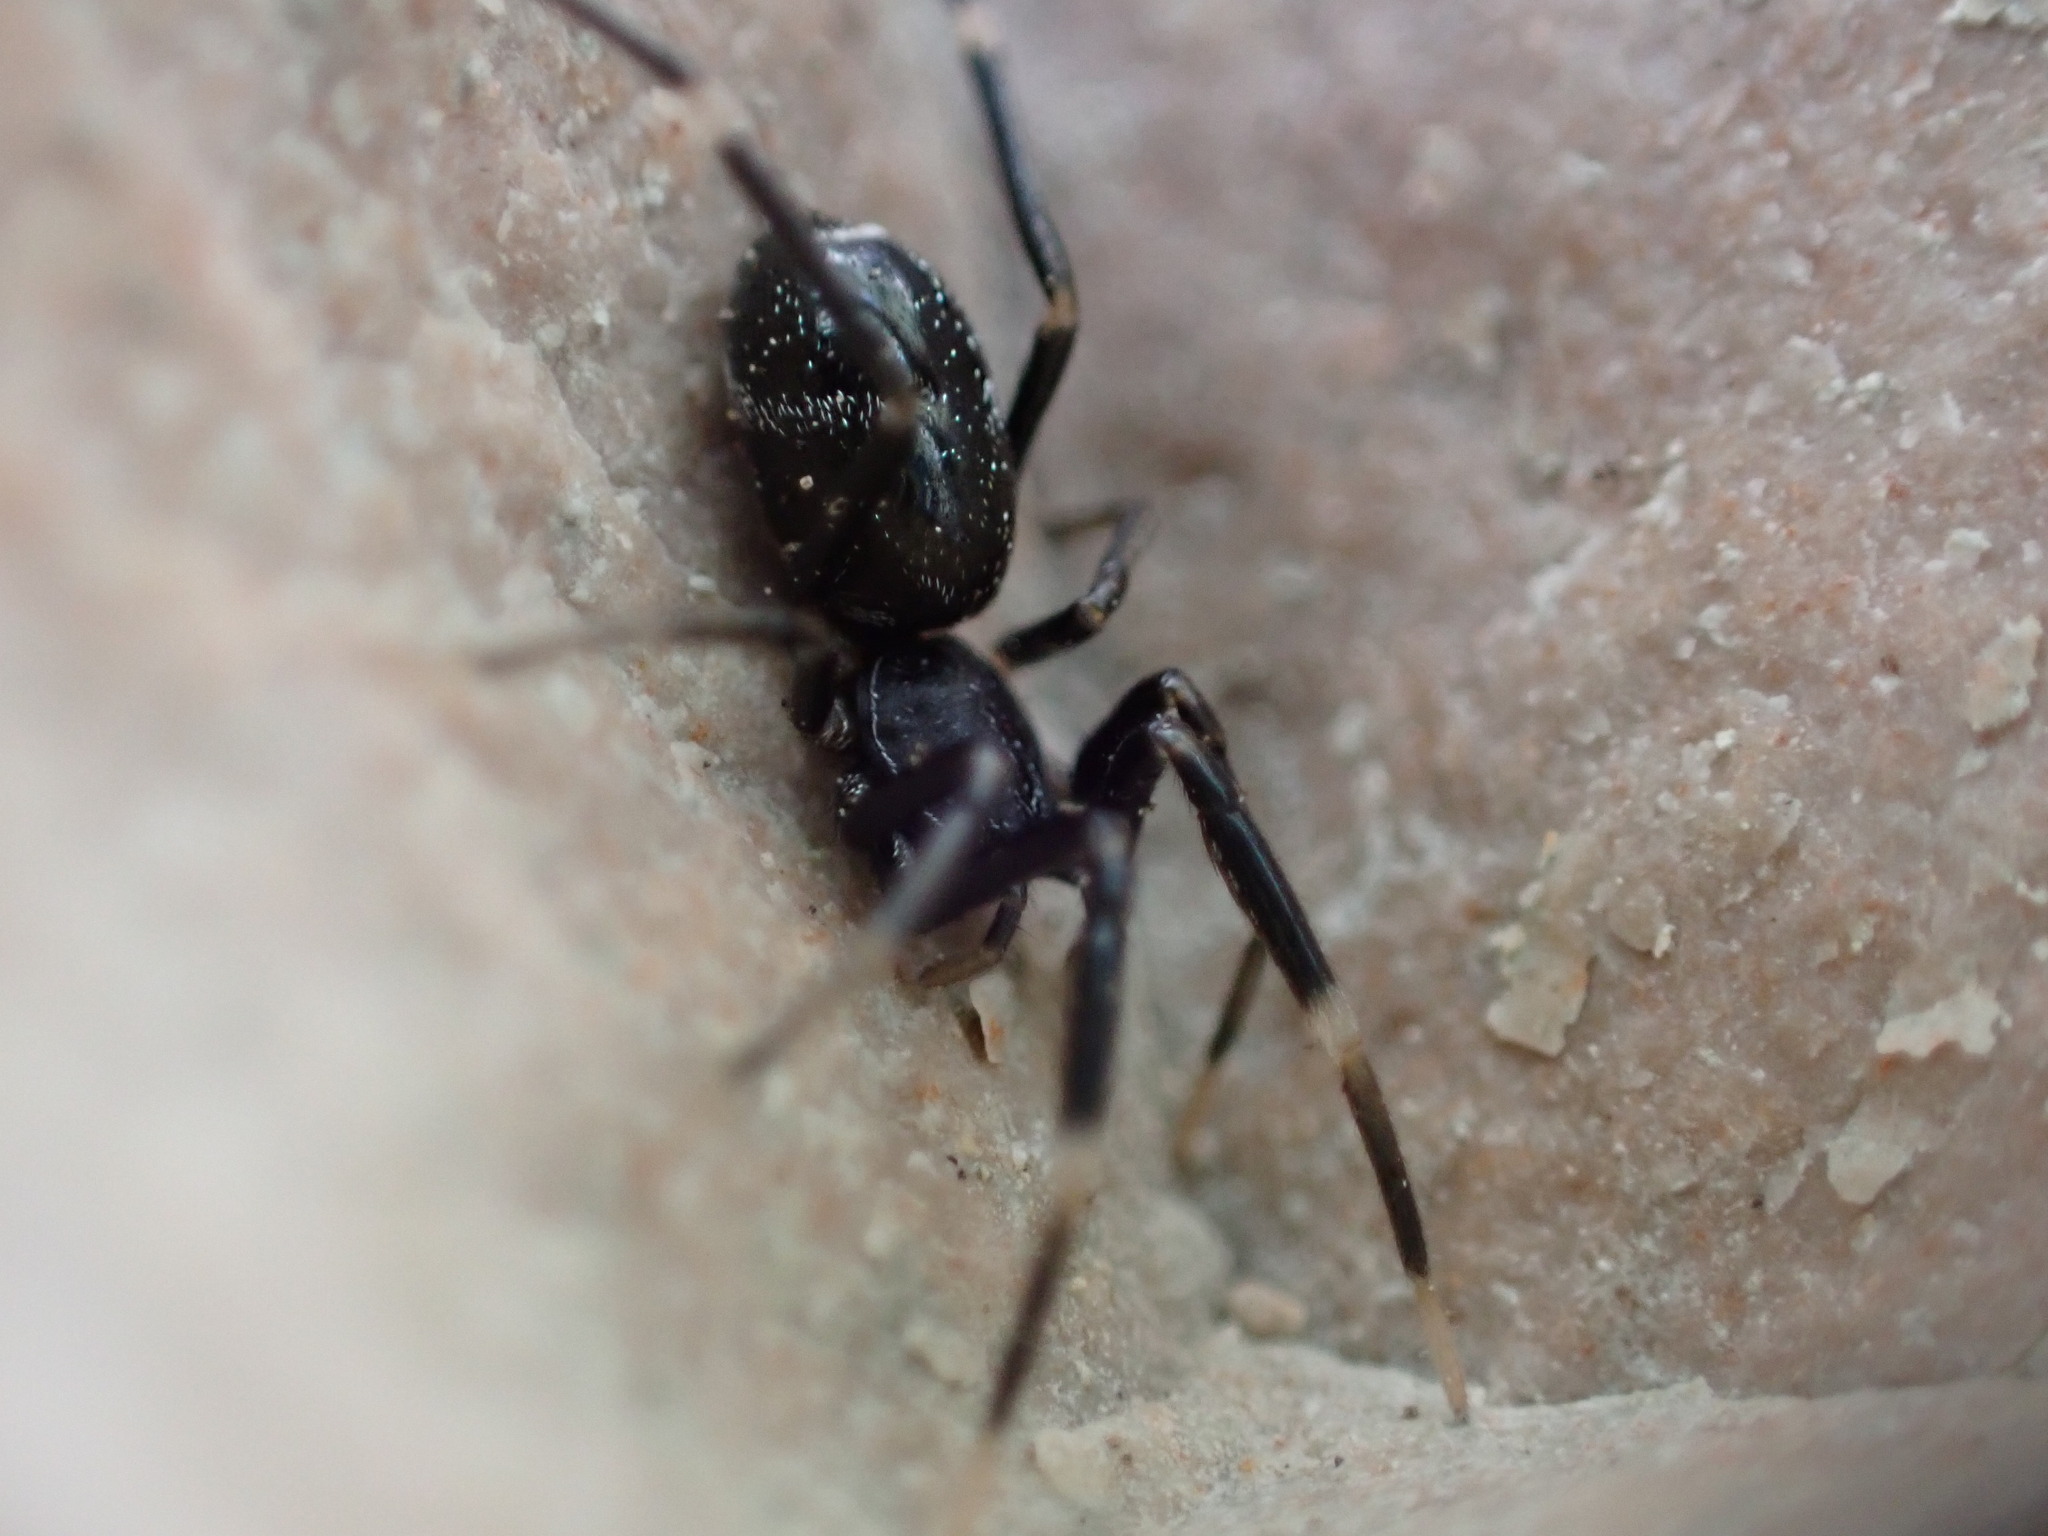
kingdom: Animalia
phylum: Arthropoda
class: Arachnida
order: Araneae
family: Phrurolithidae
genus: Liophrurillus
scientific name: Liophrurillus flavitarsis
